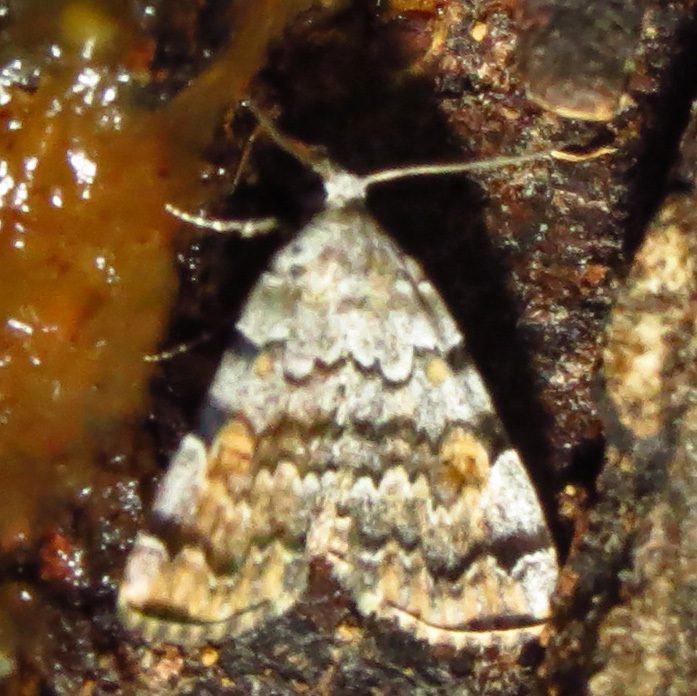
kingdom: Animalia
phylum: Arthropoda
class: Insecta
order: Lepidoptera
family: Erebidae
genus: Idia
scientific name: Idia americalis
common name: American idia moth
